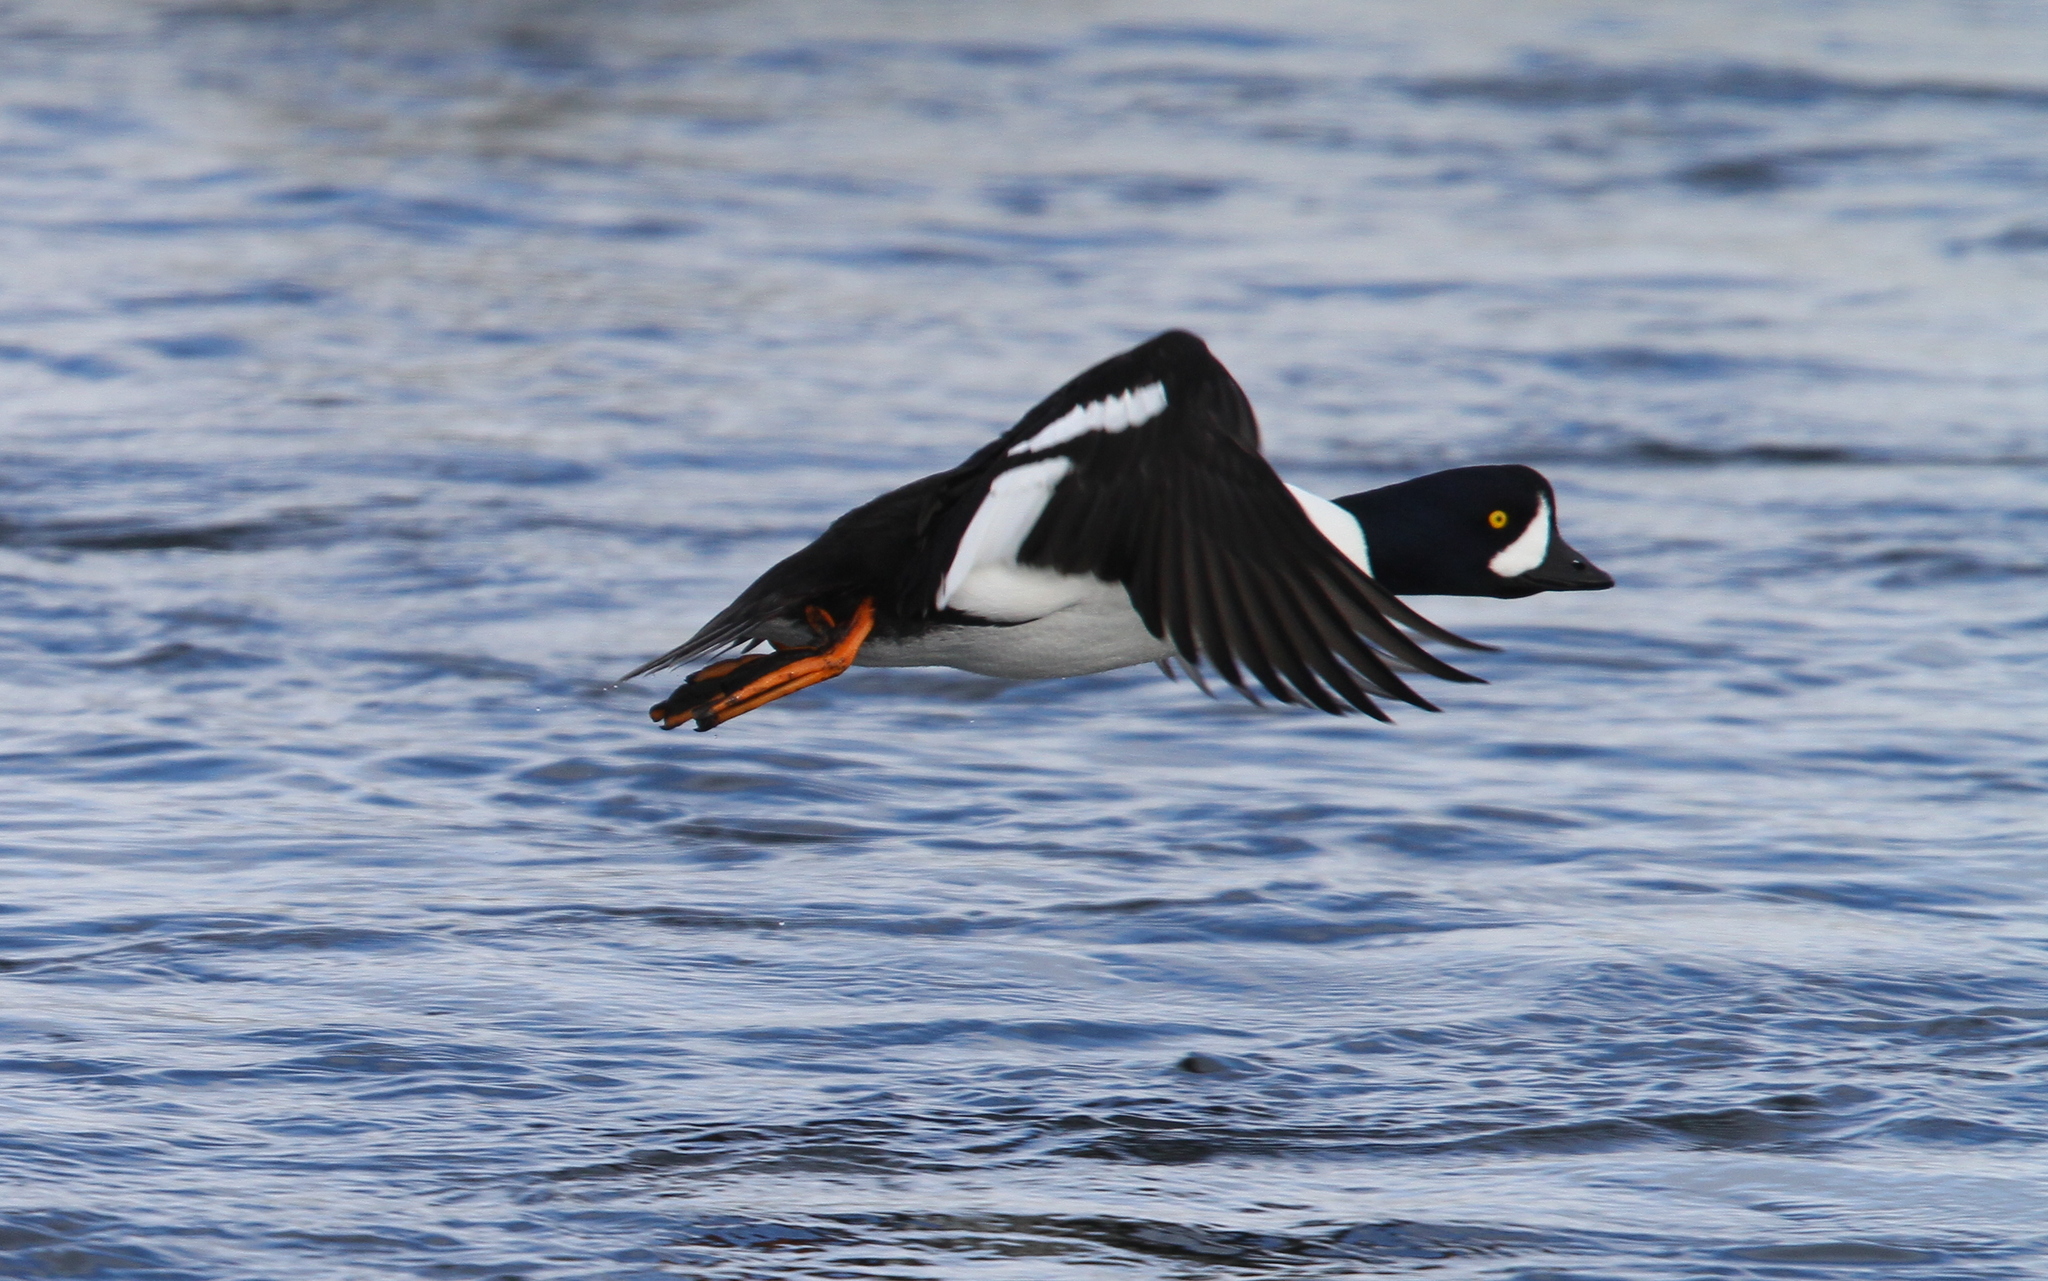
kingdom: Animalia
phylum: Chordata
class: Aves
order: Anseriformes
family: Anatidae
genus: Bucephala
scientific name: Bucephala islandica
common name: Barrow's goldeneye
